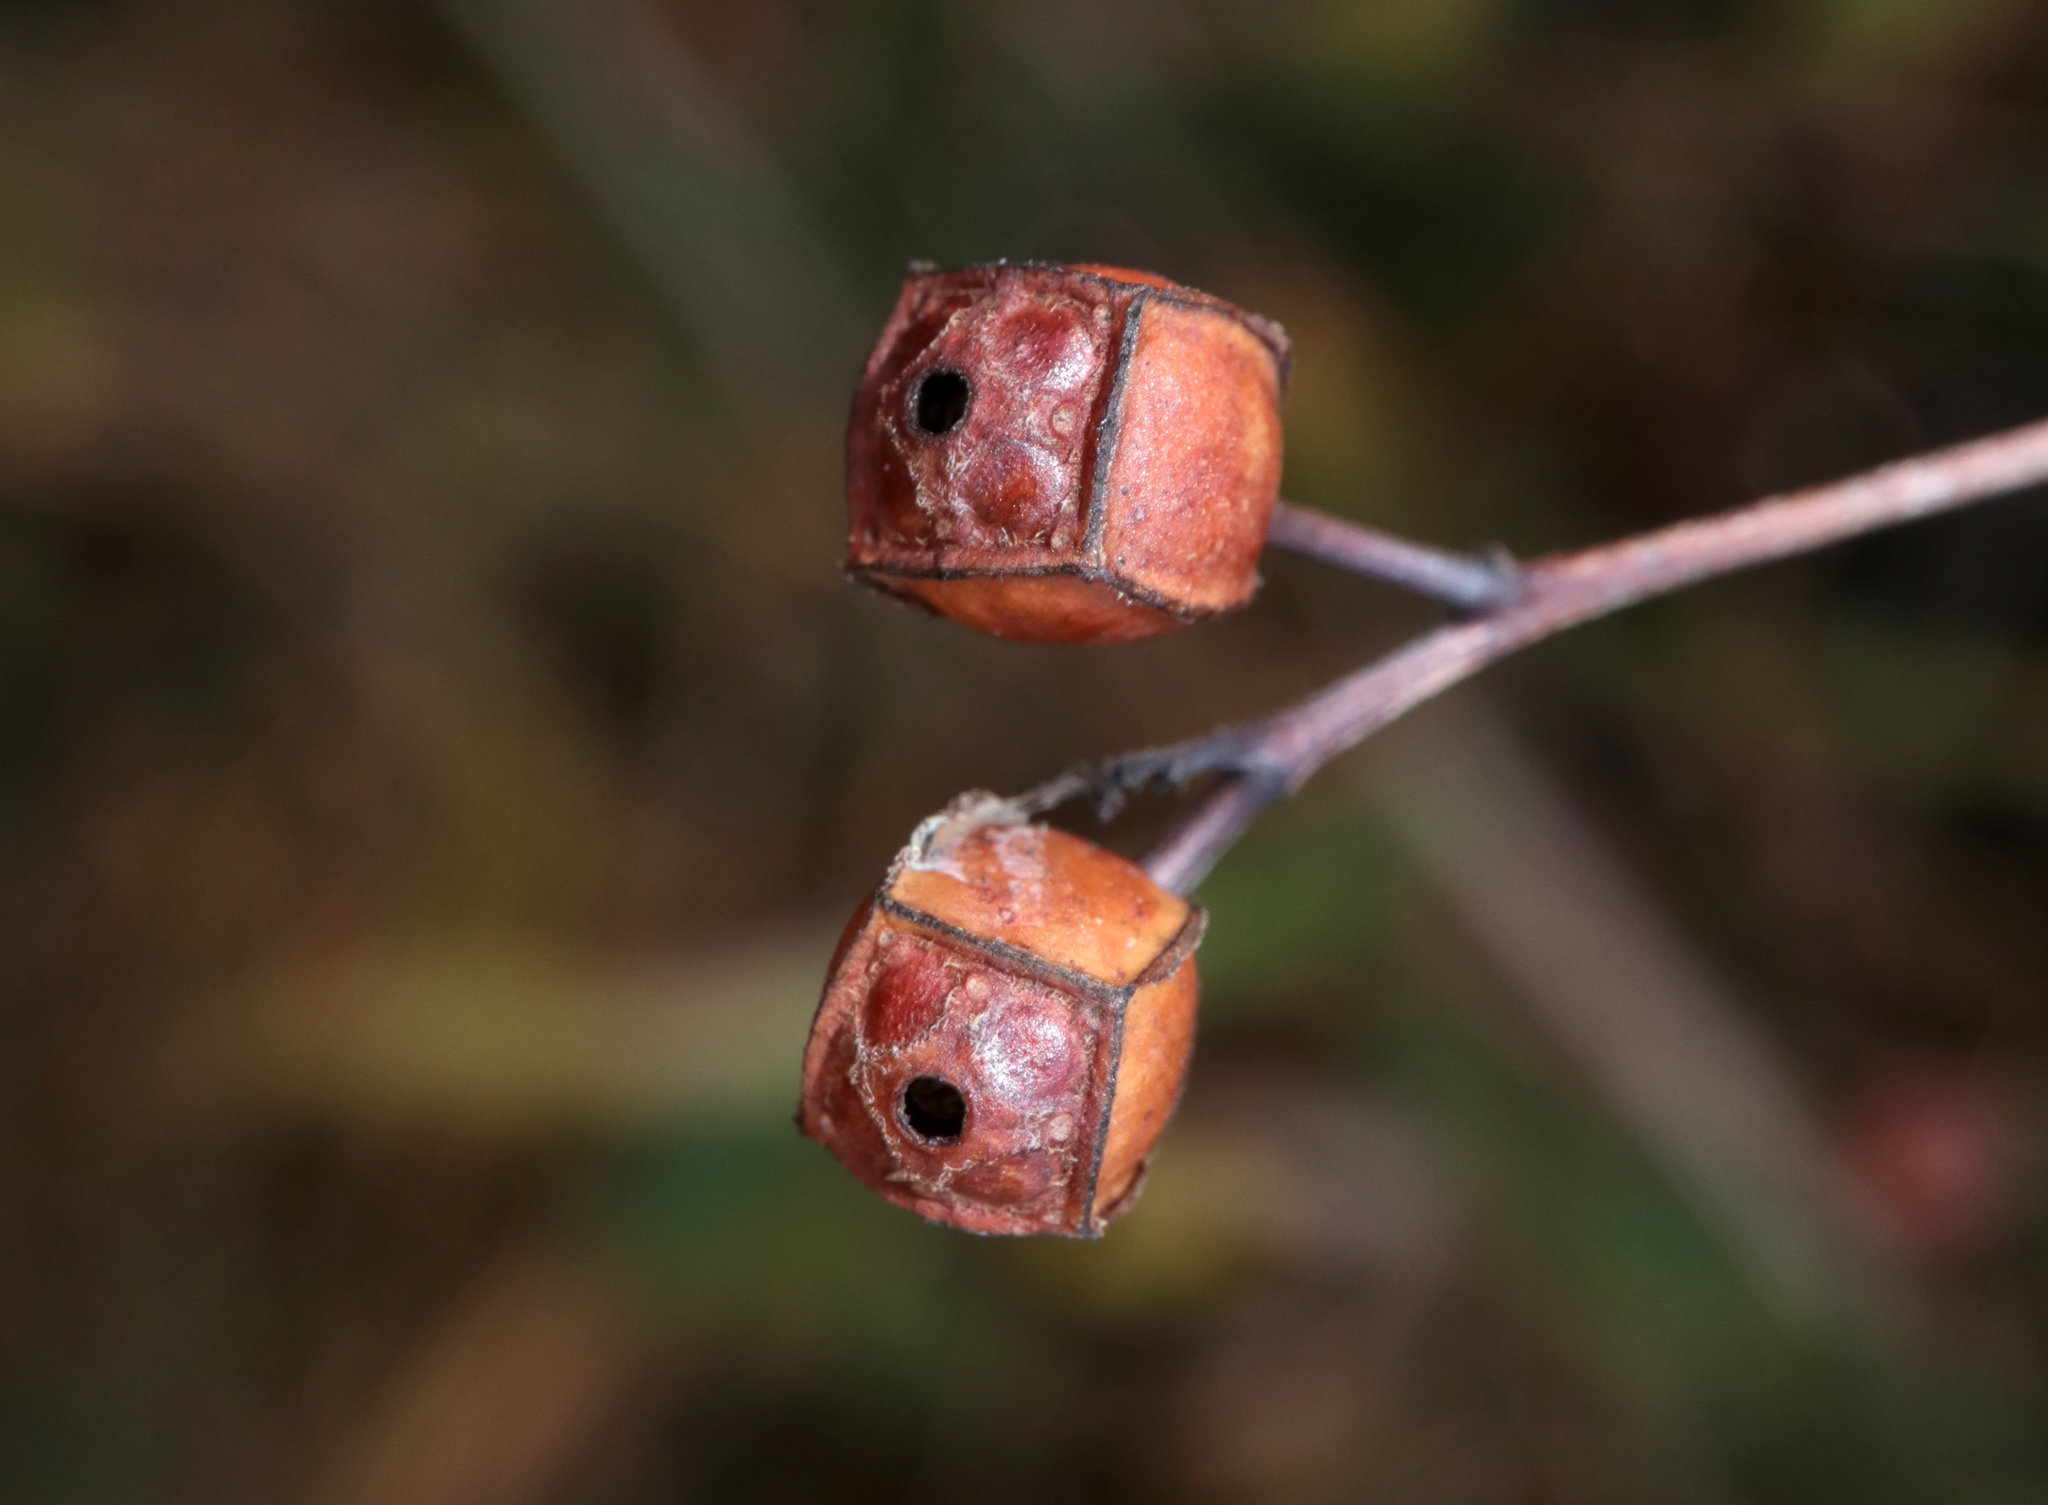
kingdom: Plantae
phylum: Tracheophyta
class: Magnoliopsida
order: Myrtales
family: Onagraceae
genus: Ludwigia
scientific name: Ludwigia alternifolia
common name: Rattlebox
